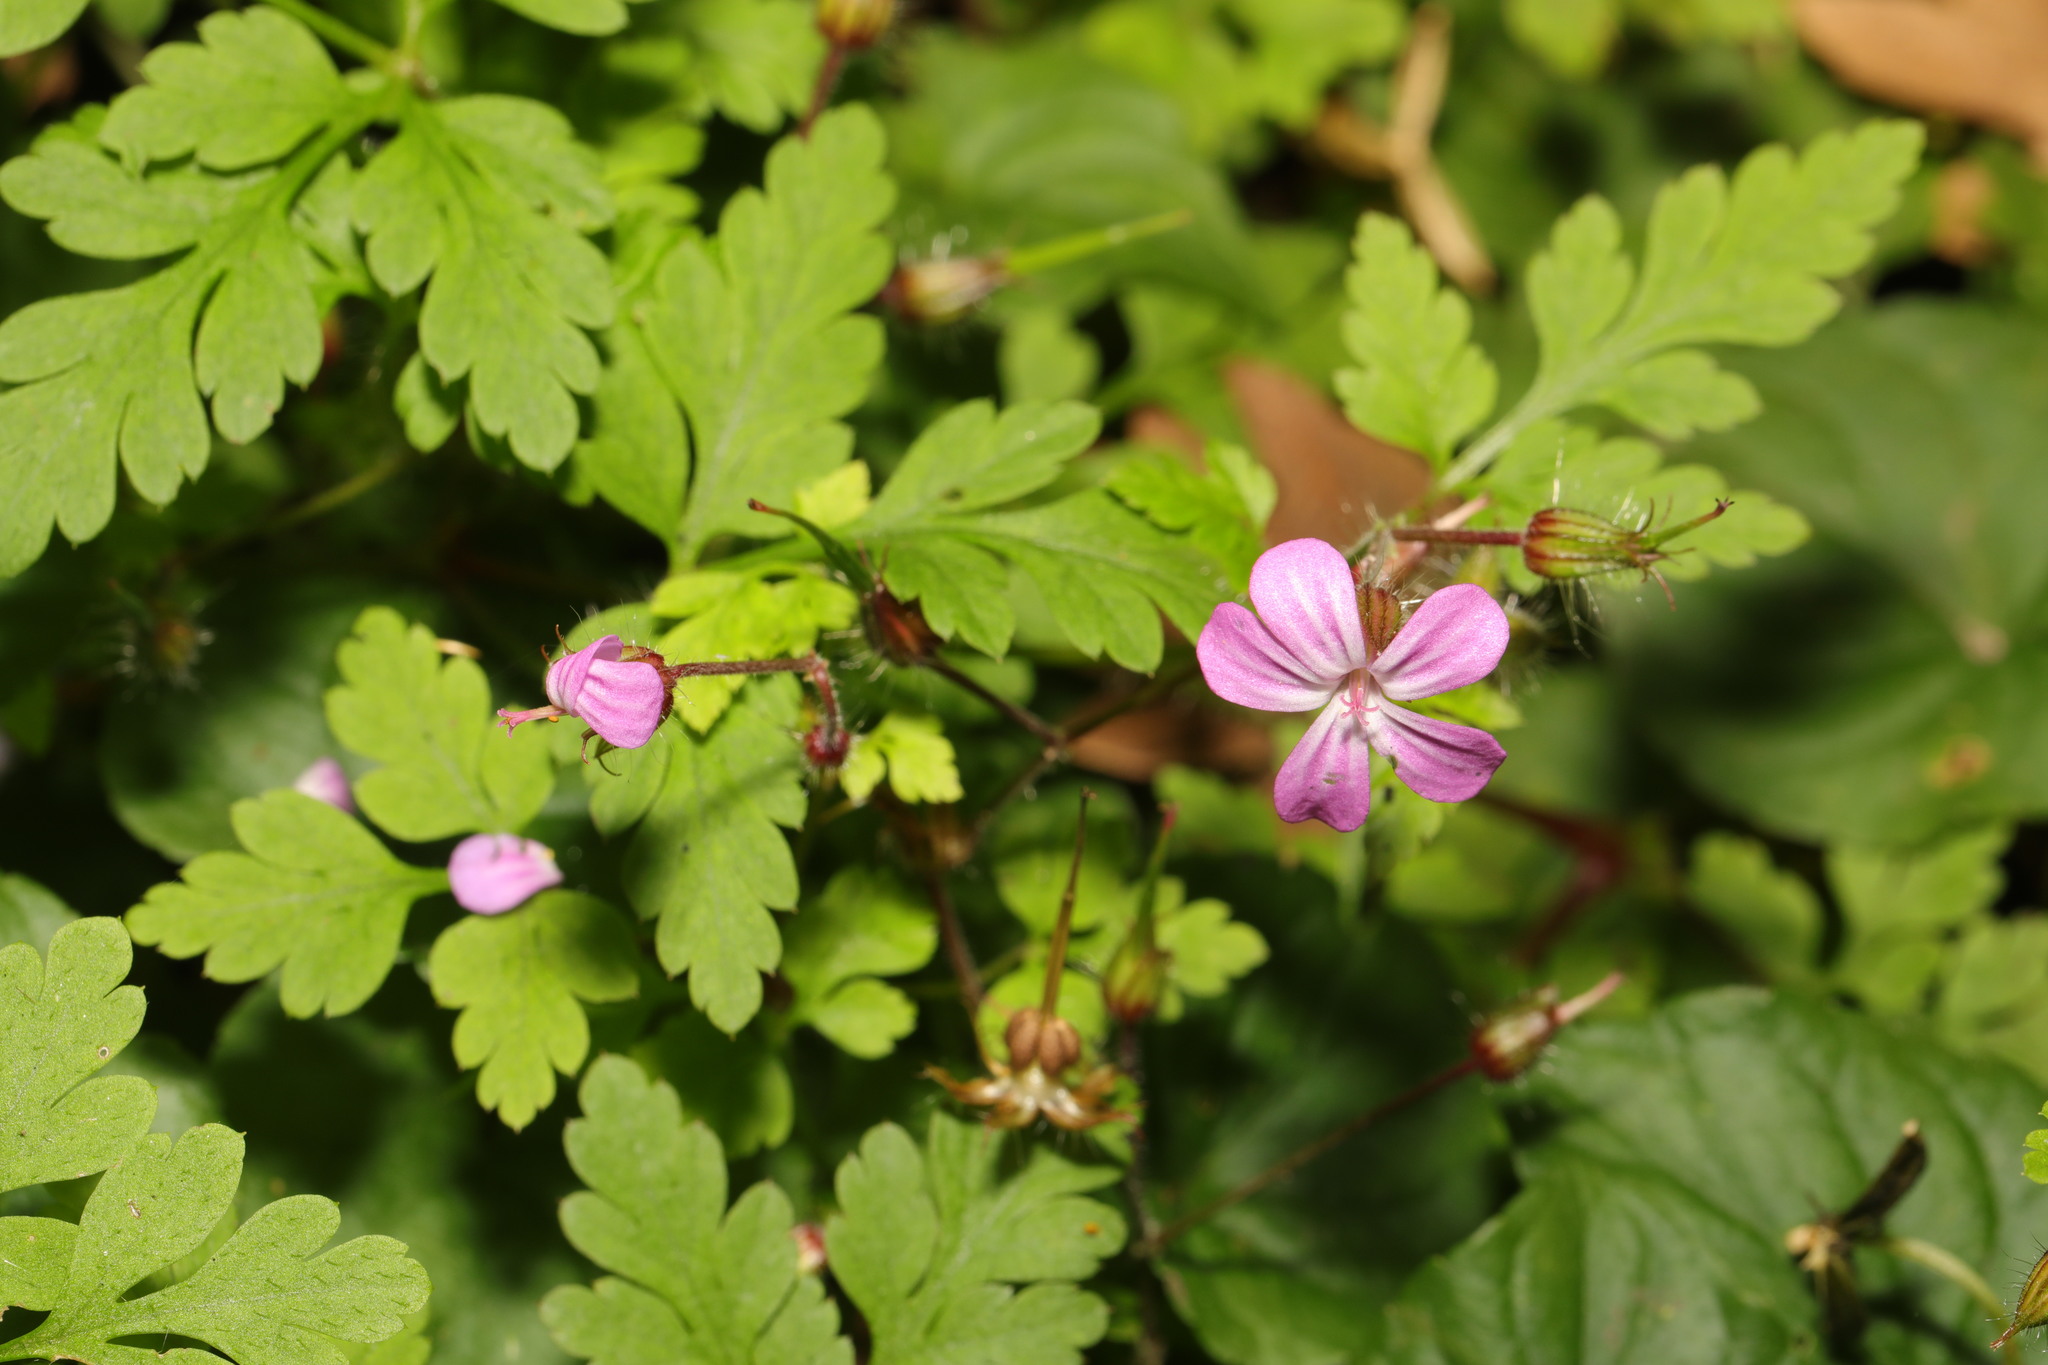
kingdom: Plantae
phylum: Tracheophyta
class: Magnoliopsida
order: Geraniales
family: Geraniaceae
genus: Geranium
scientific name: Geranium robertianum
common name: Herb-robert
